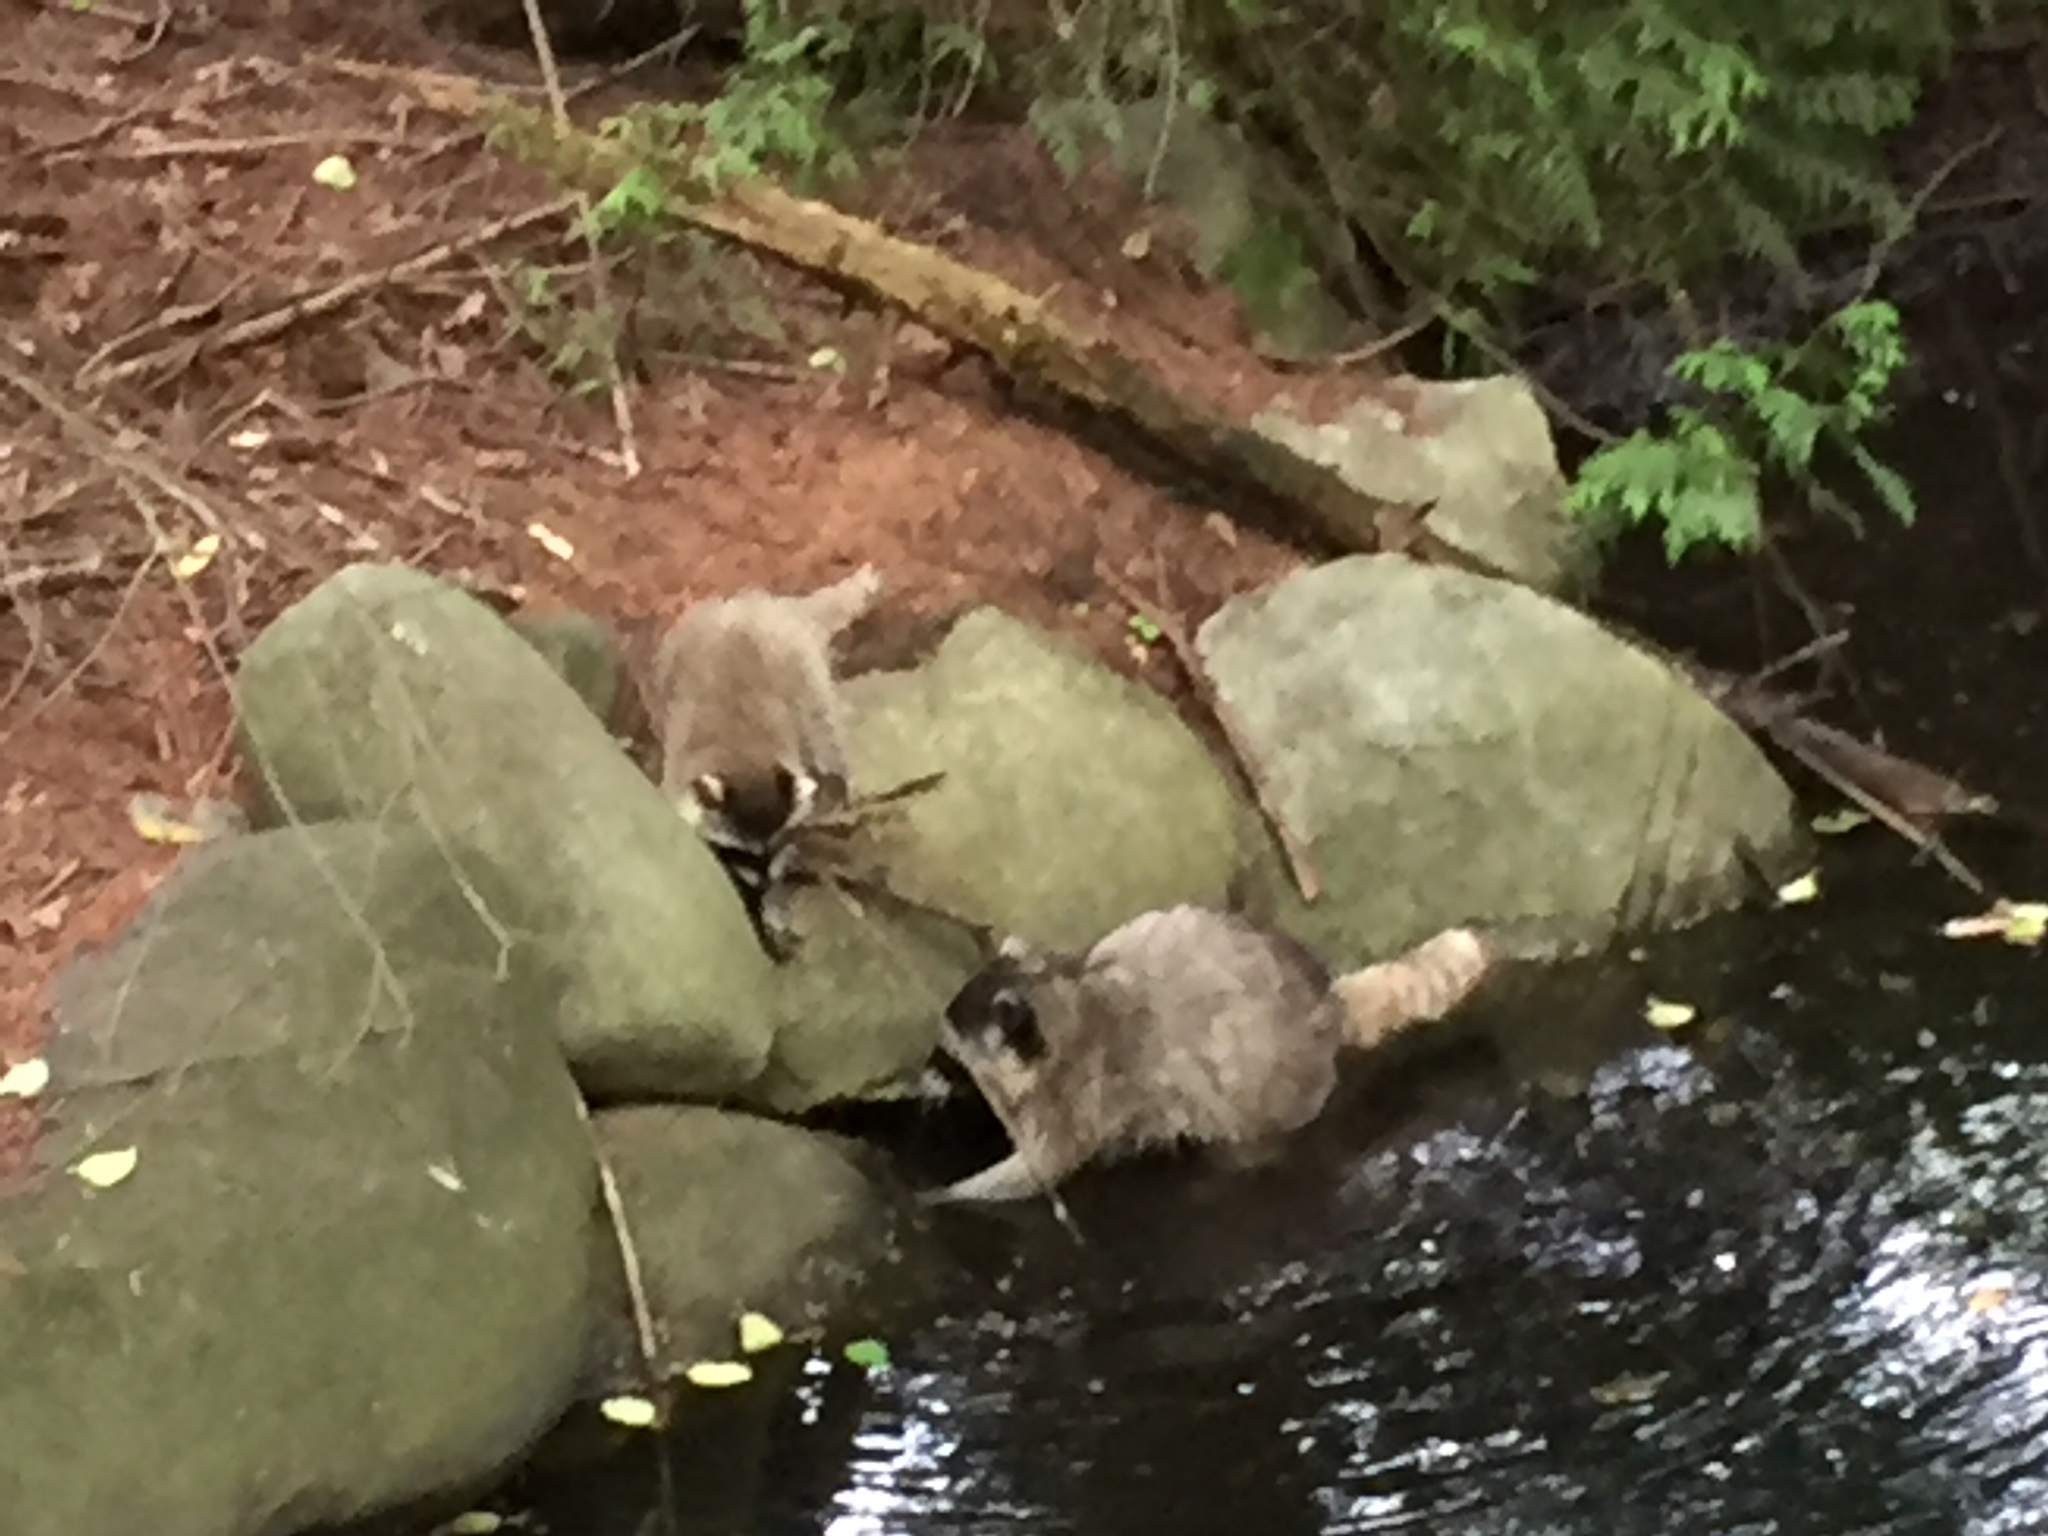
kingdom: Animalia
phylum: Chordata
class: Mammalia
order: Carnivora
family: Procyonidae
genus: Procyon
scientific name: Procyon lotor
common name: Raccoon
